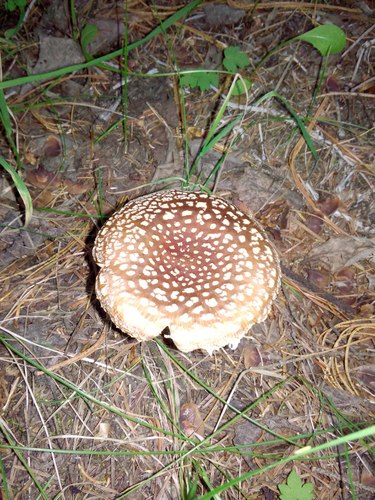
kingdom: Fungi
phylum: Basidiomycota
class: Agaricomycetes
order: Agaricales
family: Amanitaceae
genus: Amanita
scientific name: Amanita regalis
